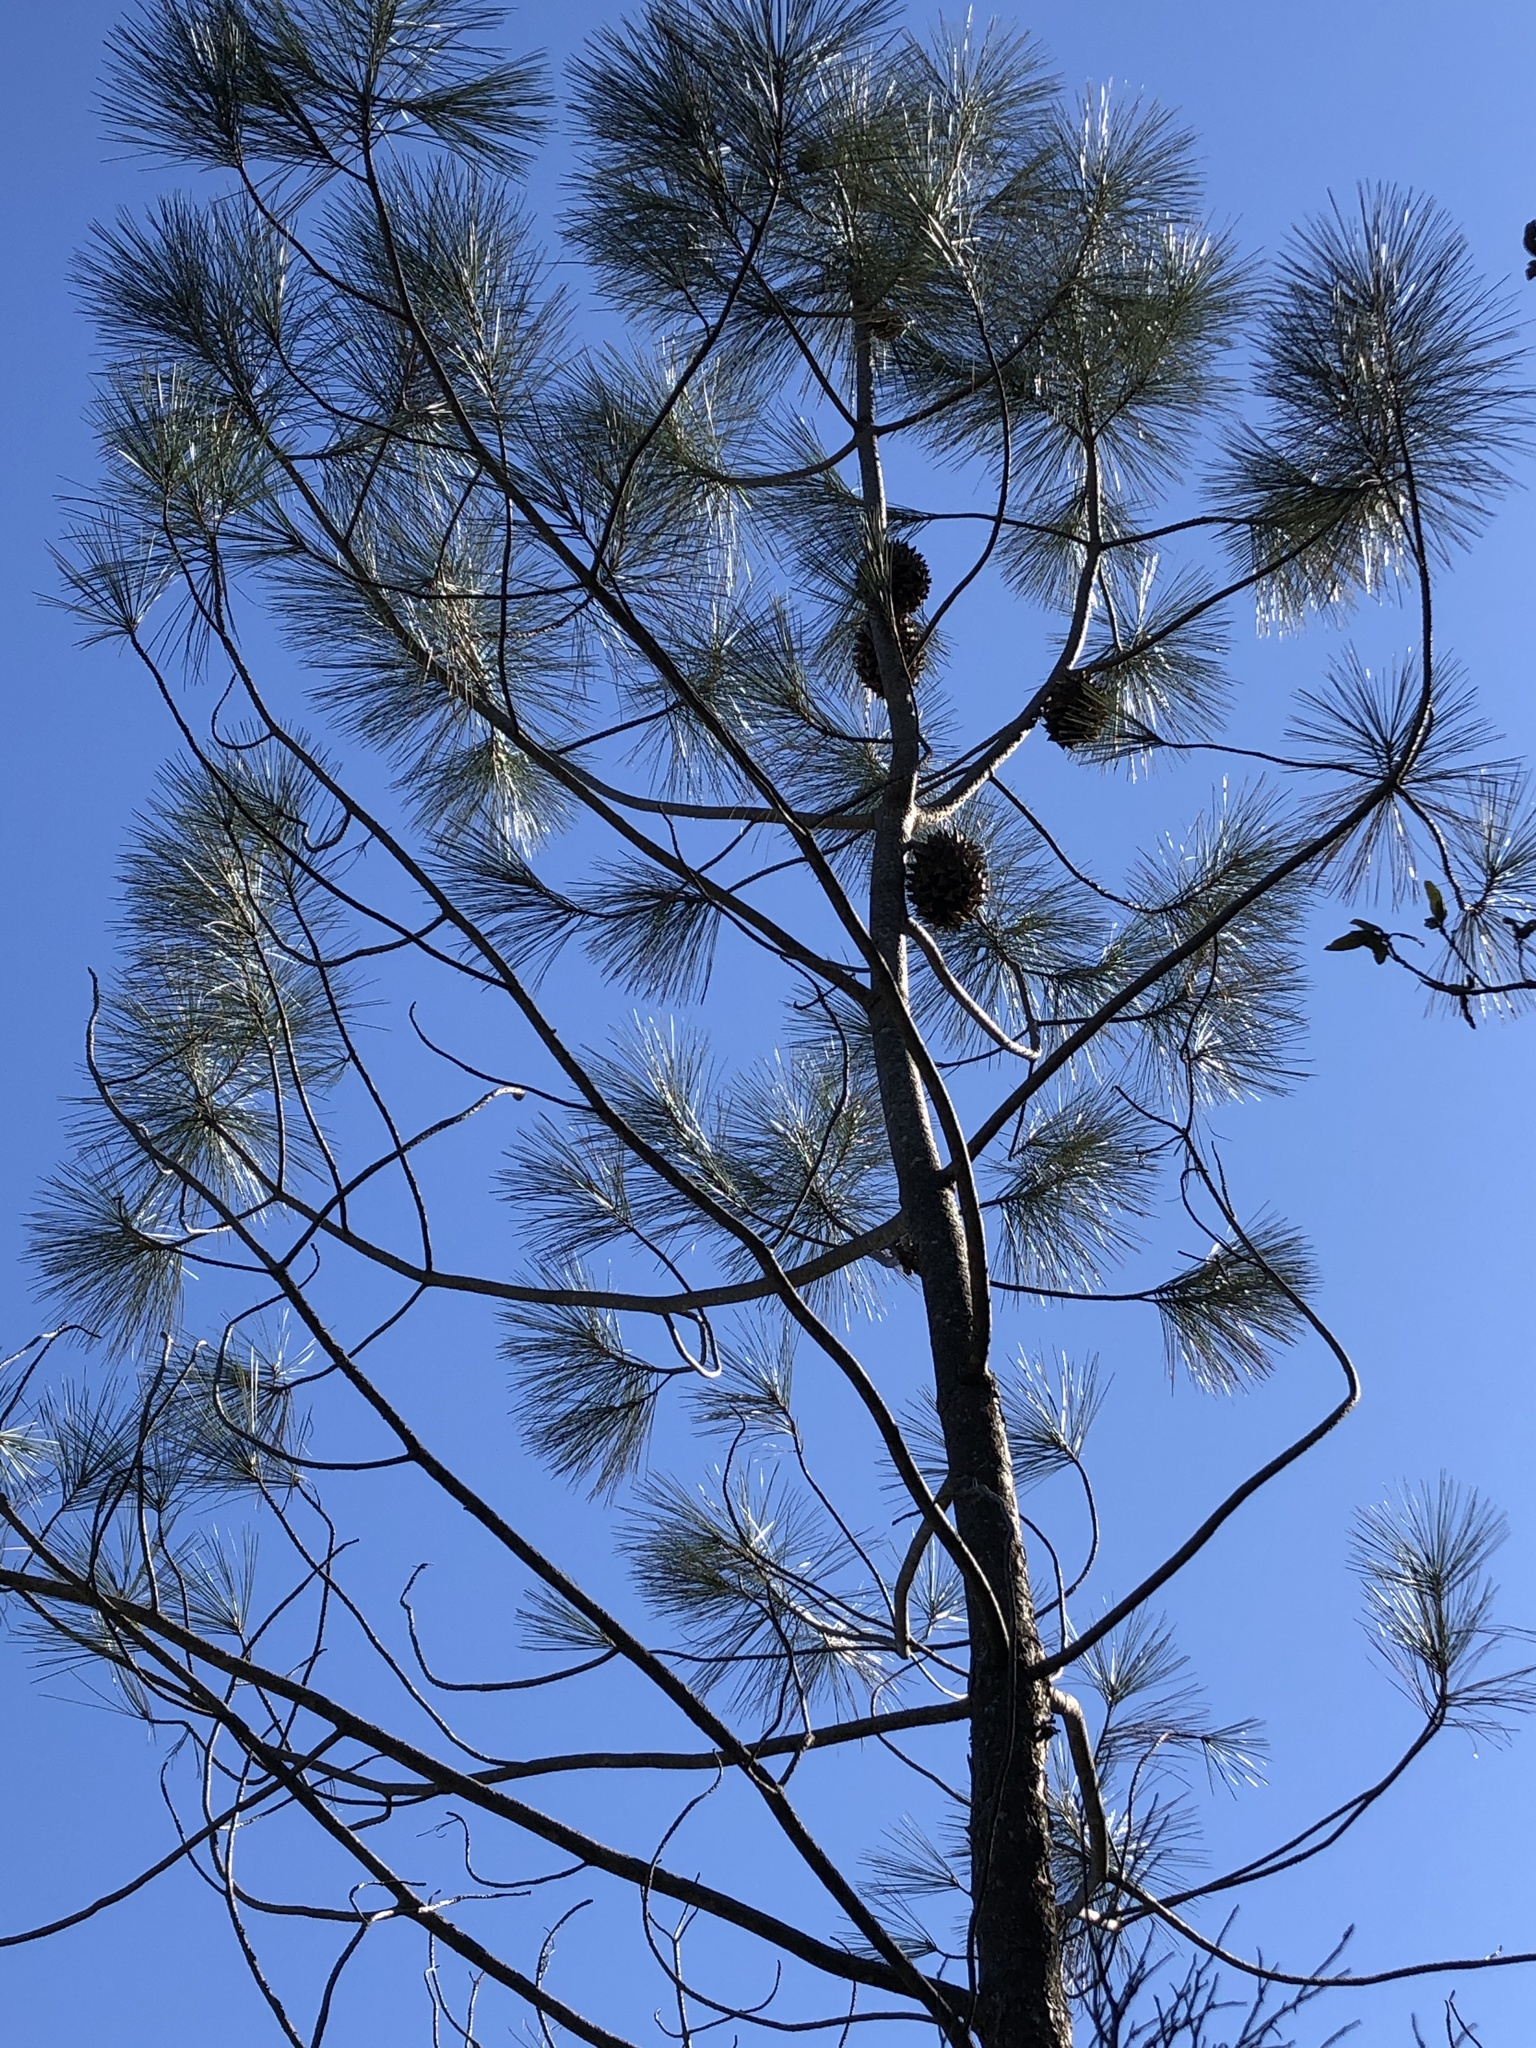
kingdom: Plantae
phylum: Tracheophyta
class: Pinopsida
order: Pinales
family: Pinaceae
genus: Pinus
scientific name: Pinus sabiniana
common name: Bull pine
